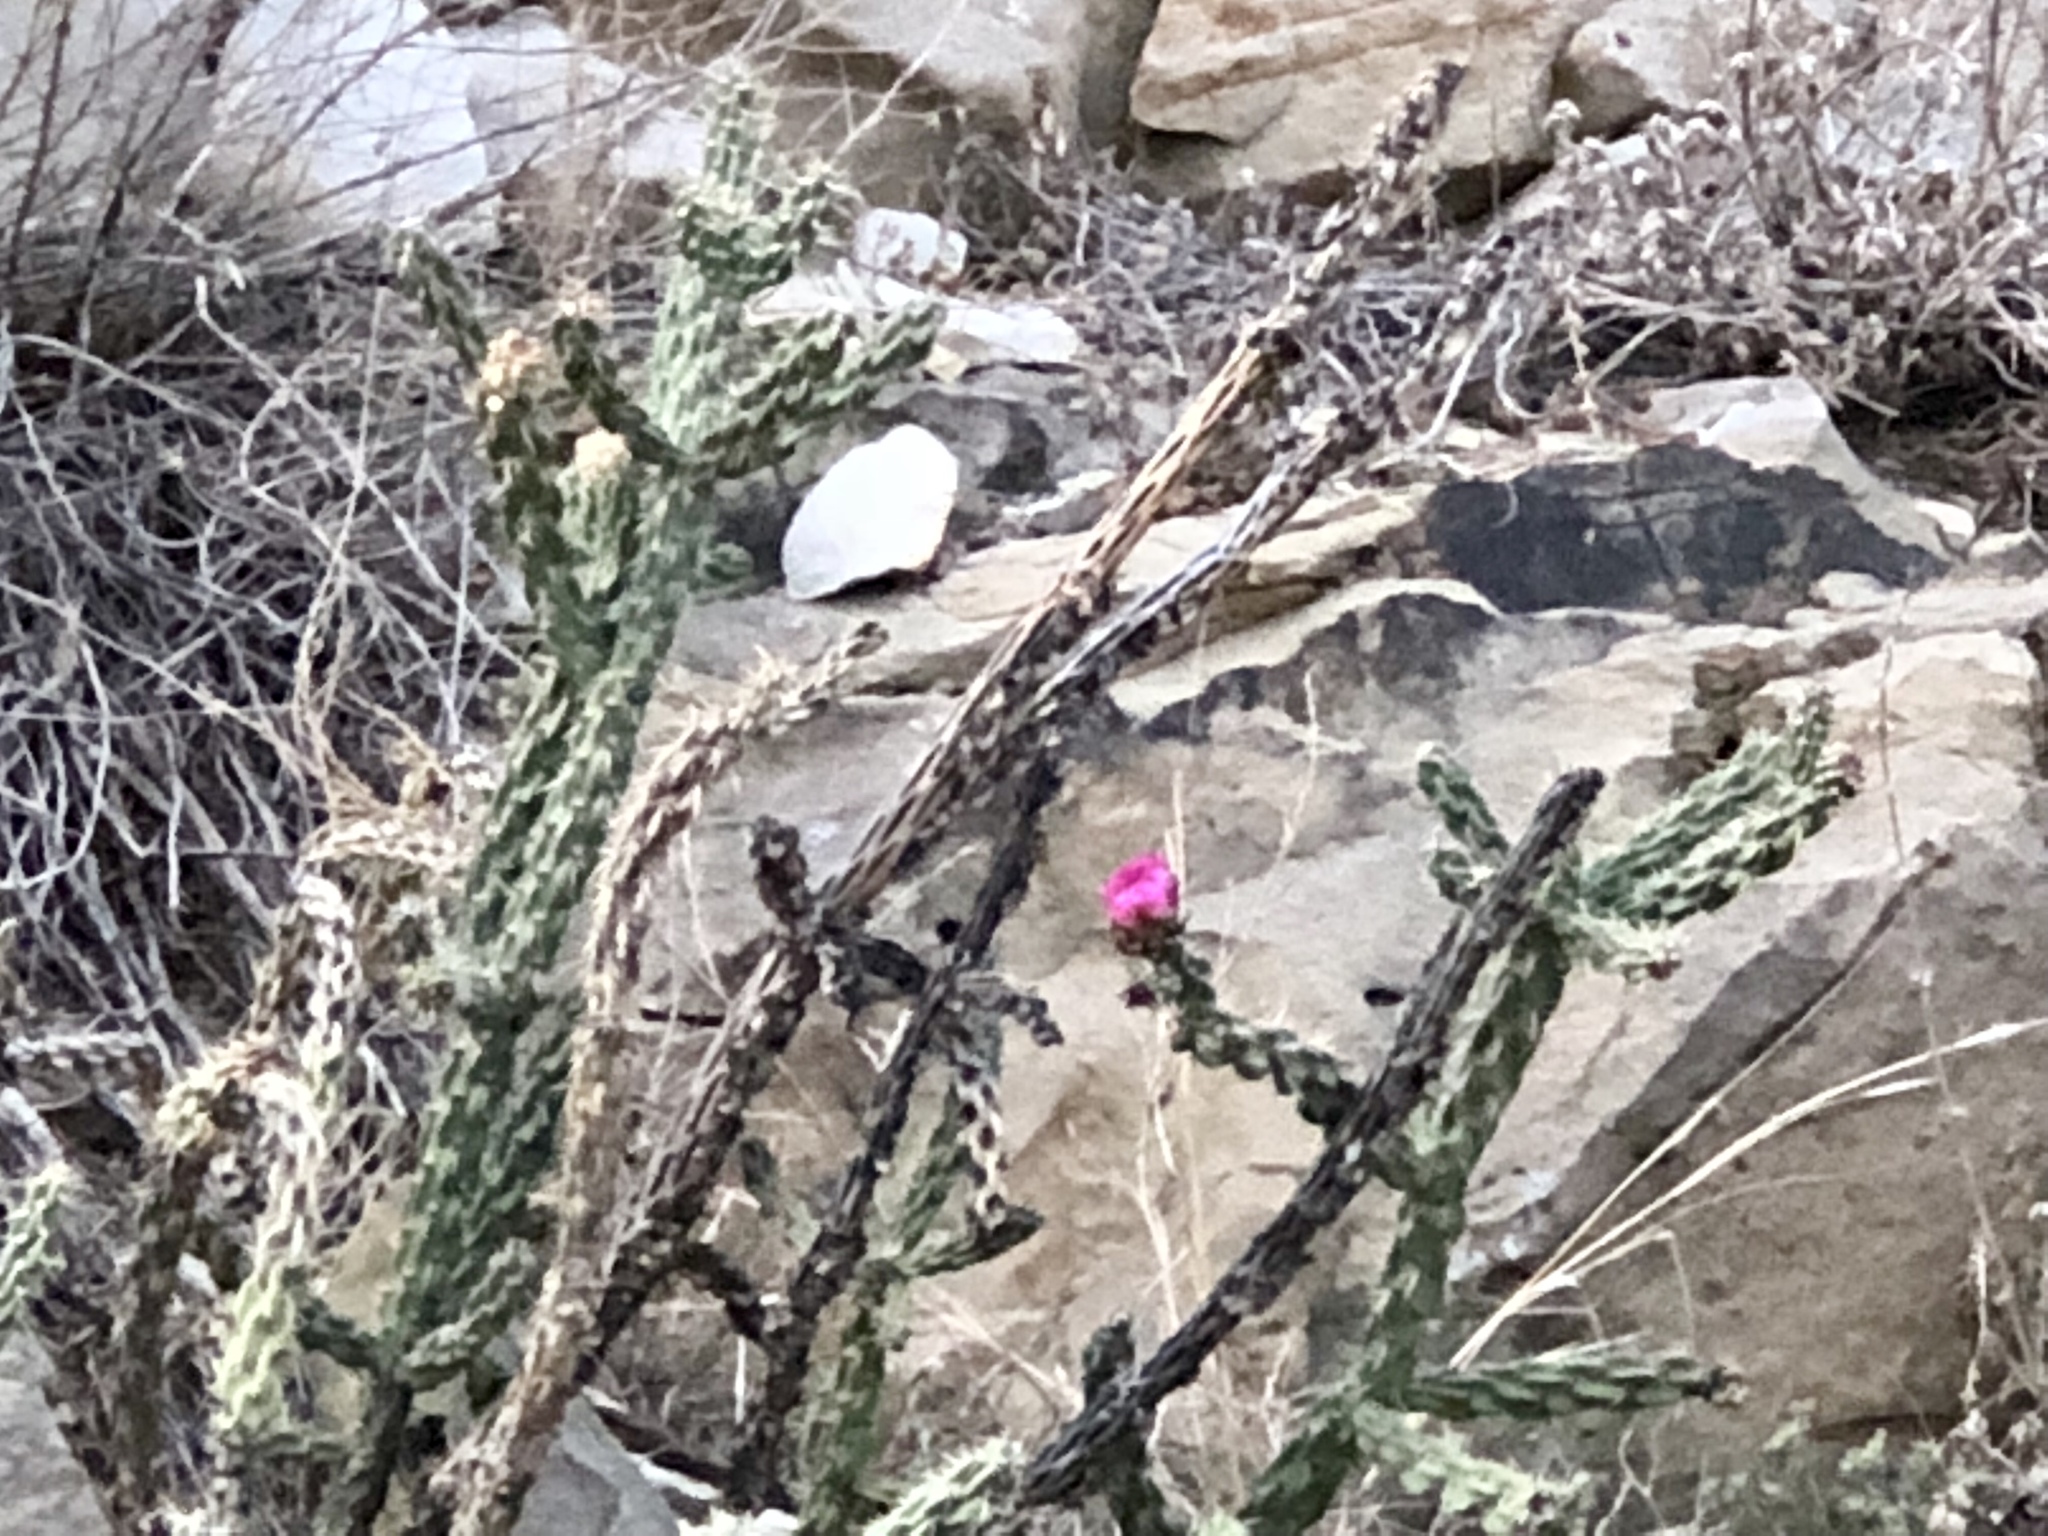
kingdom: Plantae
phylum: Tracheophyta
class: Magnoliopsida
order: Caryophyllales
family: Cactaceae
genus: Cylindropuntia
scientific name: Cylindropuntia imbricata
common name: Candelabrum cactus
